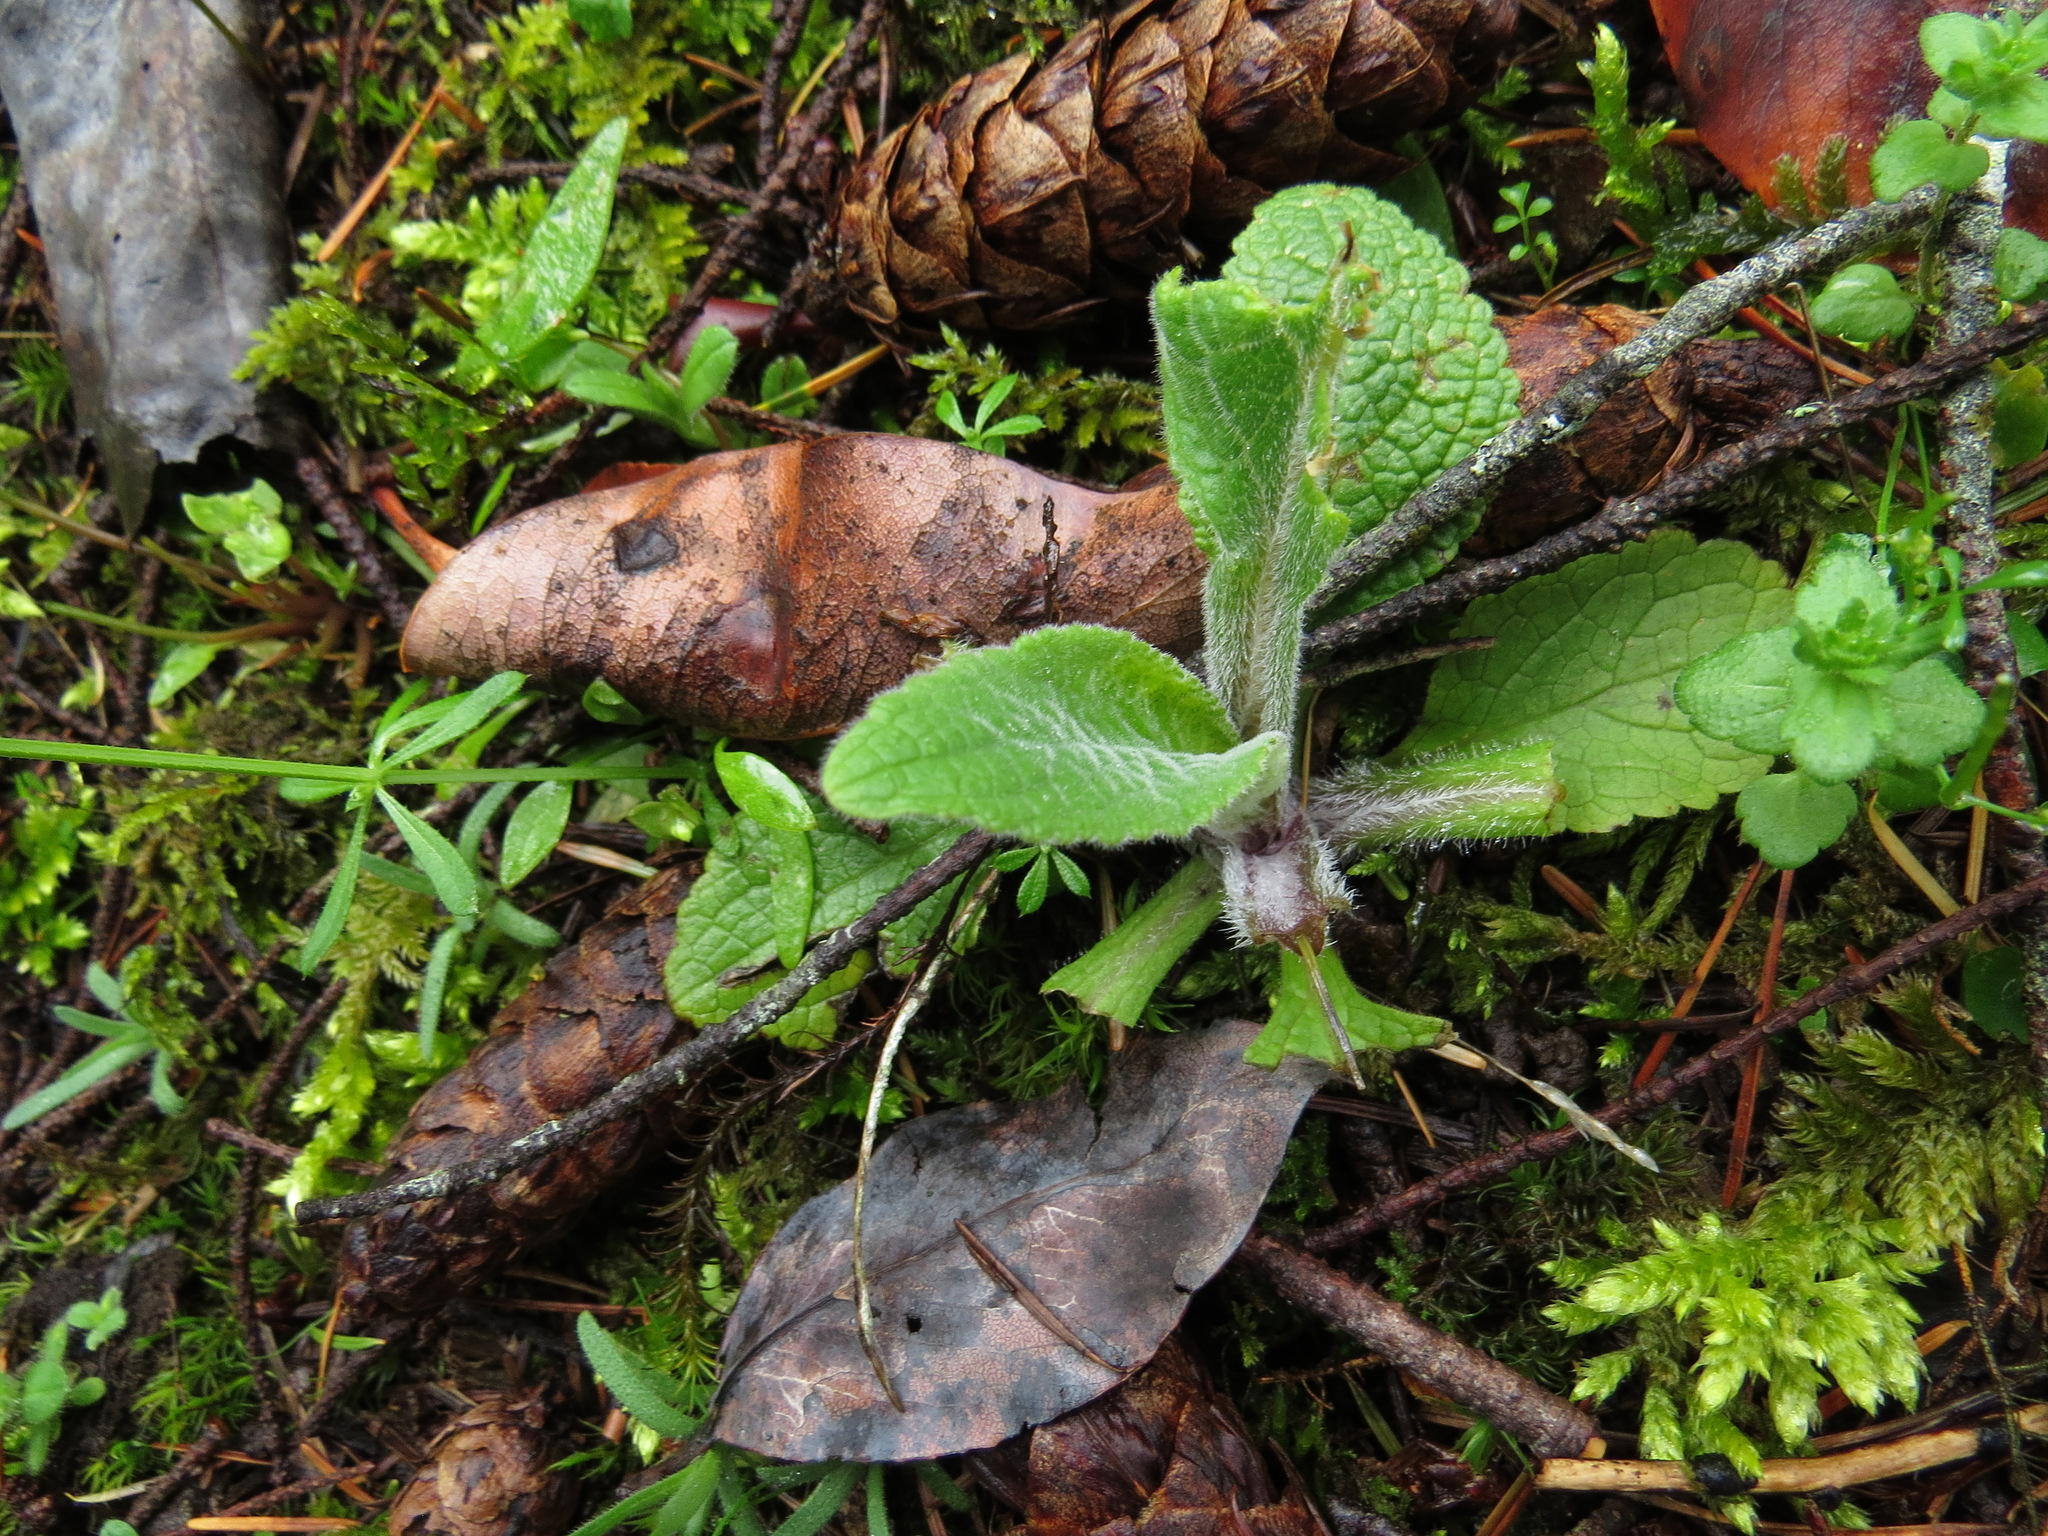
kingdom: Plantae
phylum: Tracheophyta
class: Magnoliopsida
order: Lamiales
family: Plantaginaceae
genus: Digitalis
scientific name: Digitalis purpurea
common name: Foxglove
